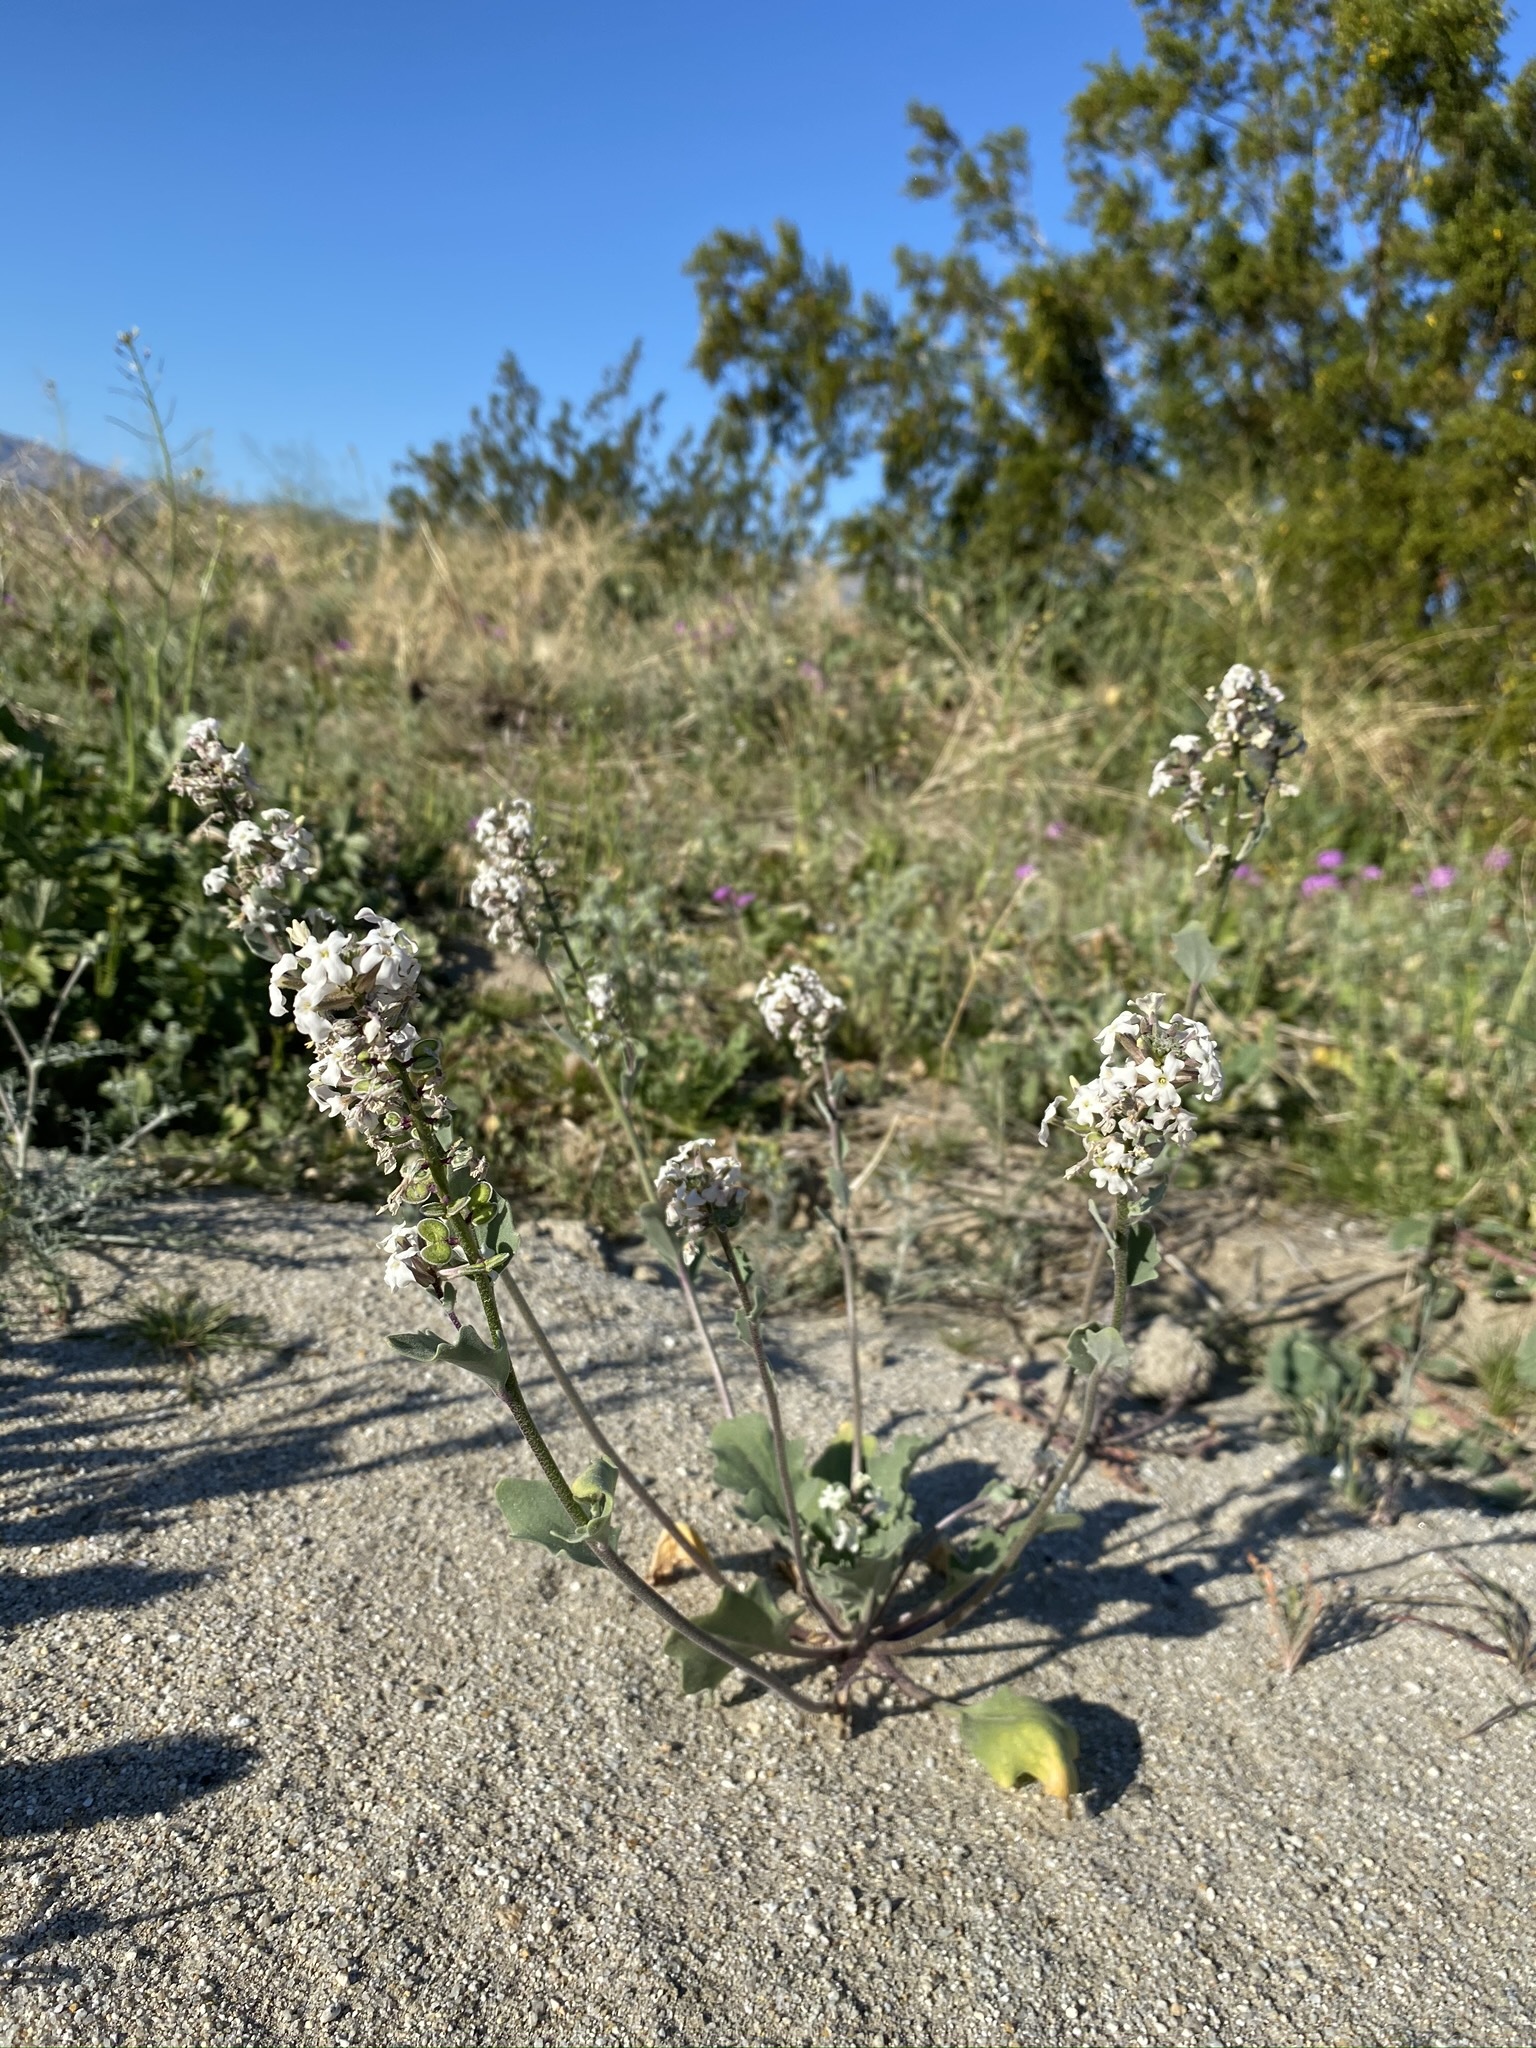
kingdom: Plantae
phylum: Tracheophyta
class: Magnoliopsida
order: Brassicales
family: Brassicaceae
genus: Dithyrea
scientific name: Dithyrea californica
